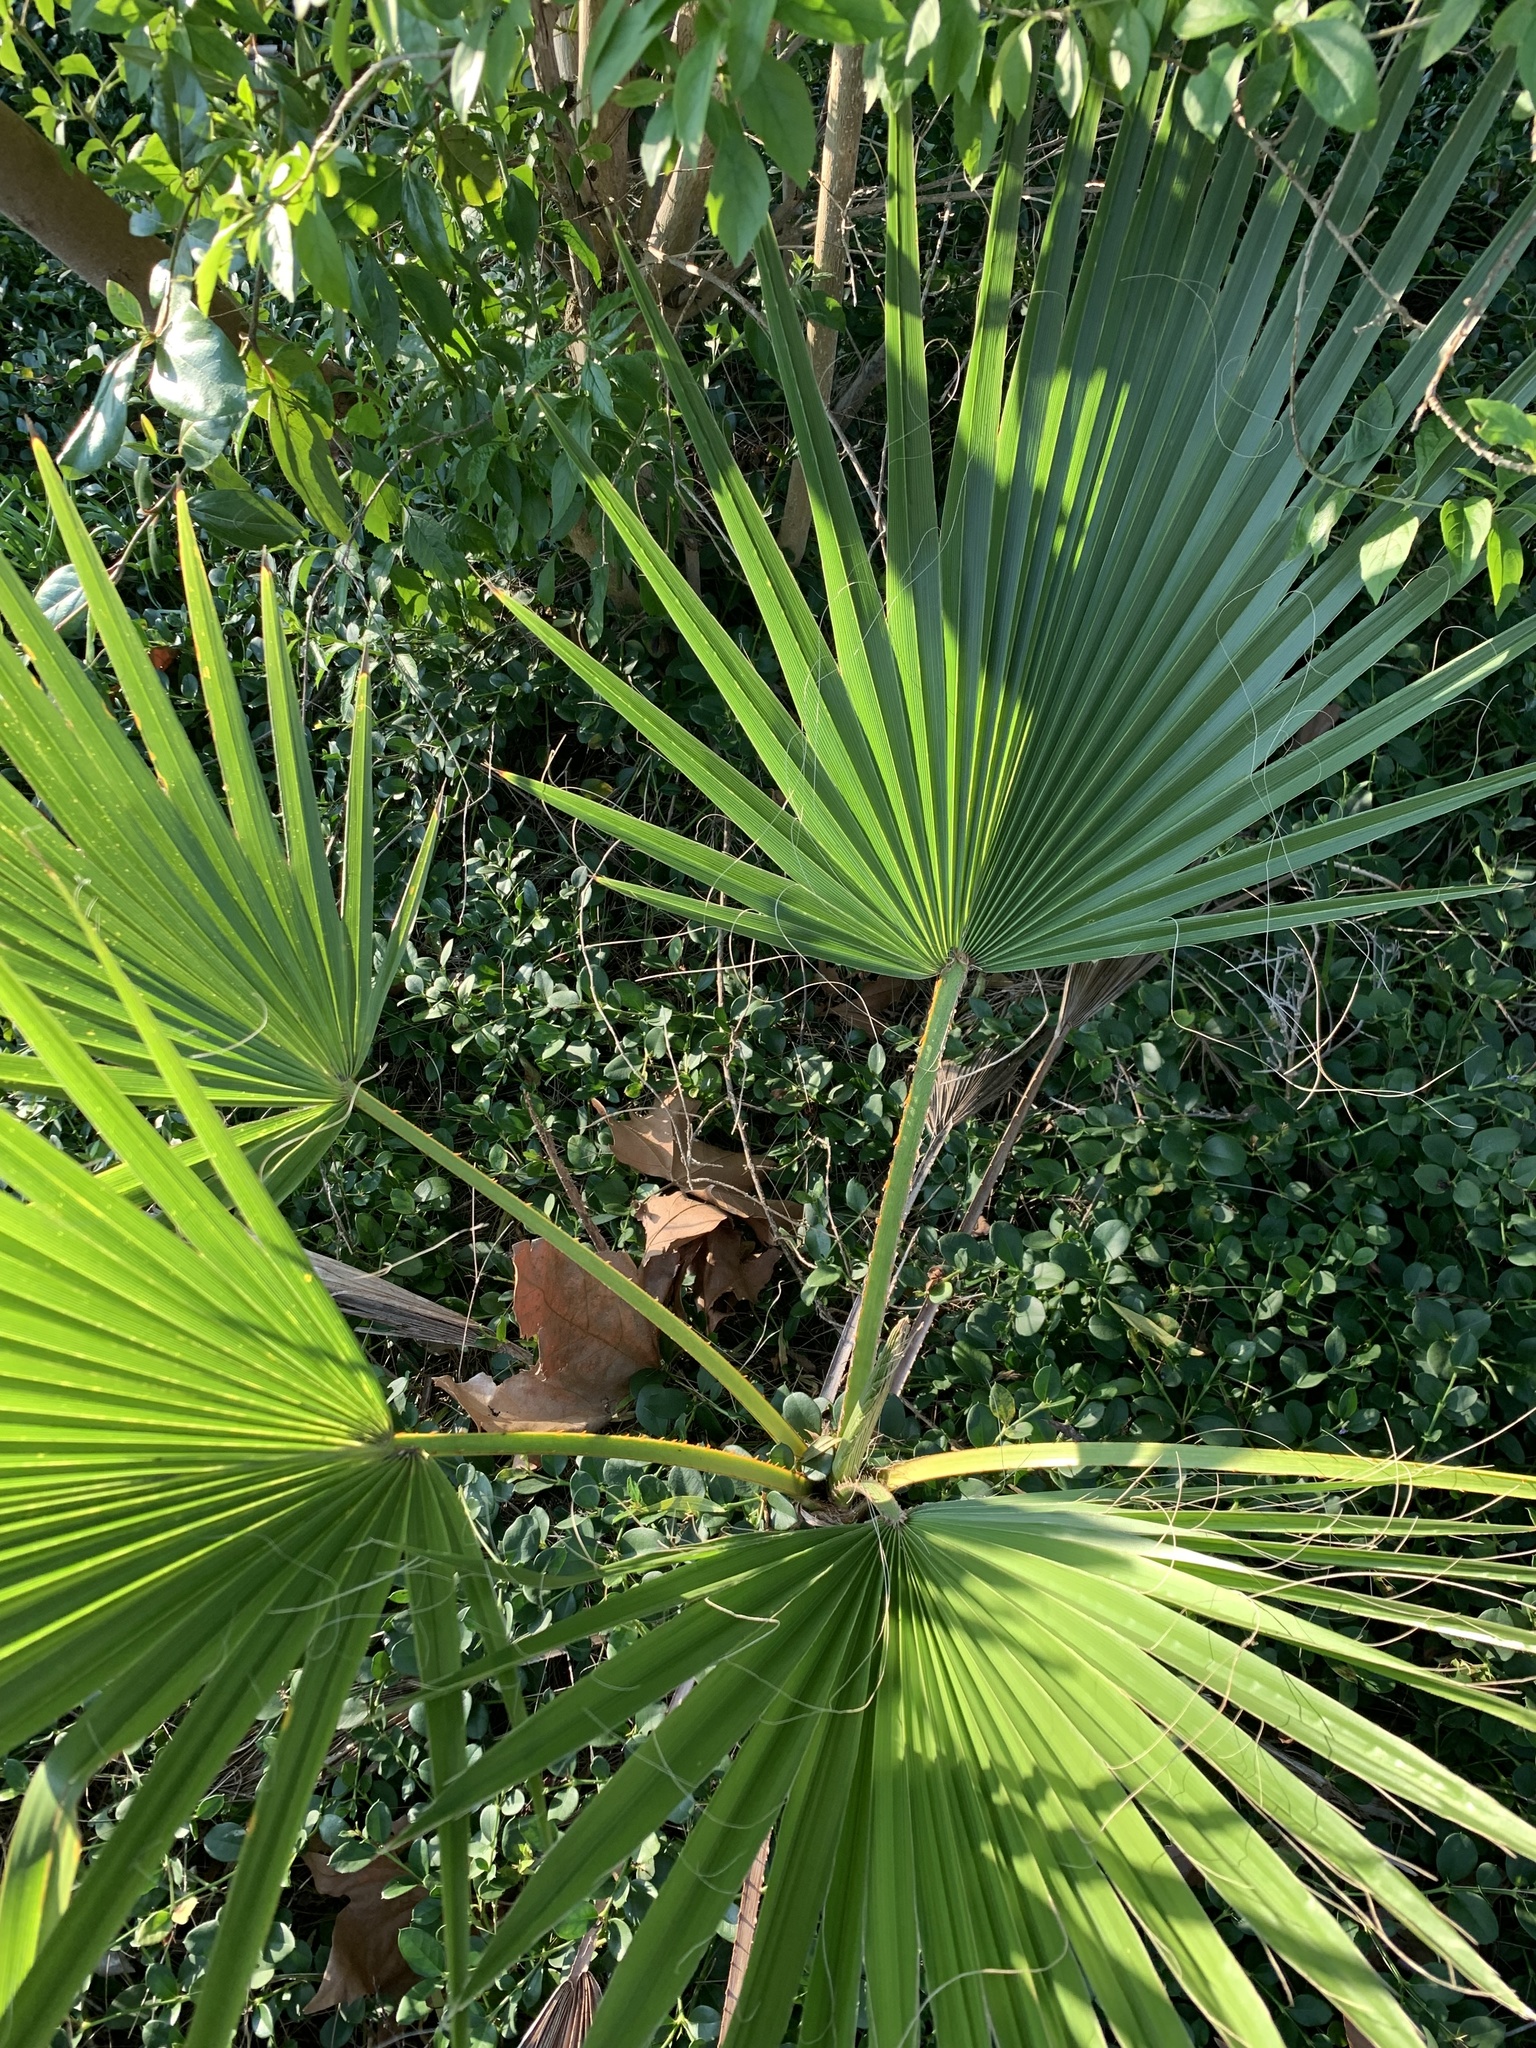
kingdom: Plantae
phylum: Tracheophyta
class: Liliopsida
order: Arecales
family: Arecaceae
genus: Washingtonia
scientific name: Washingtonia robusta
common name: Mexican fan palm
